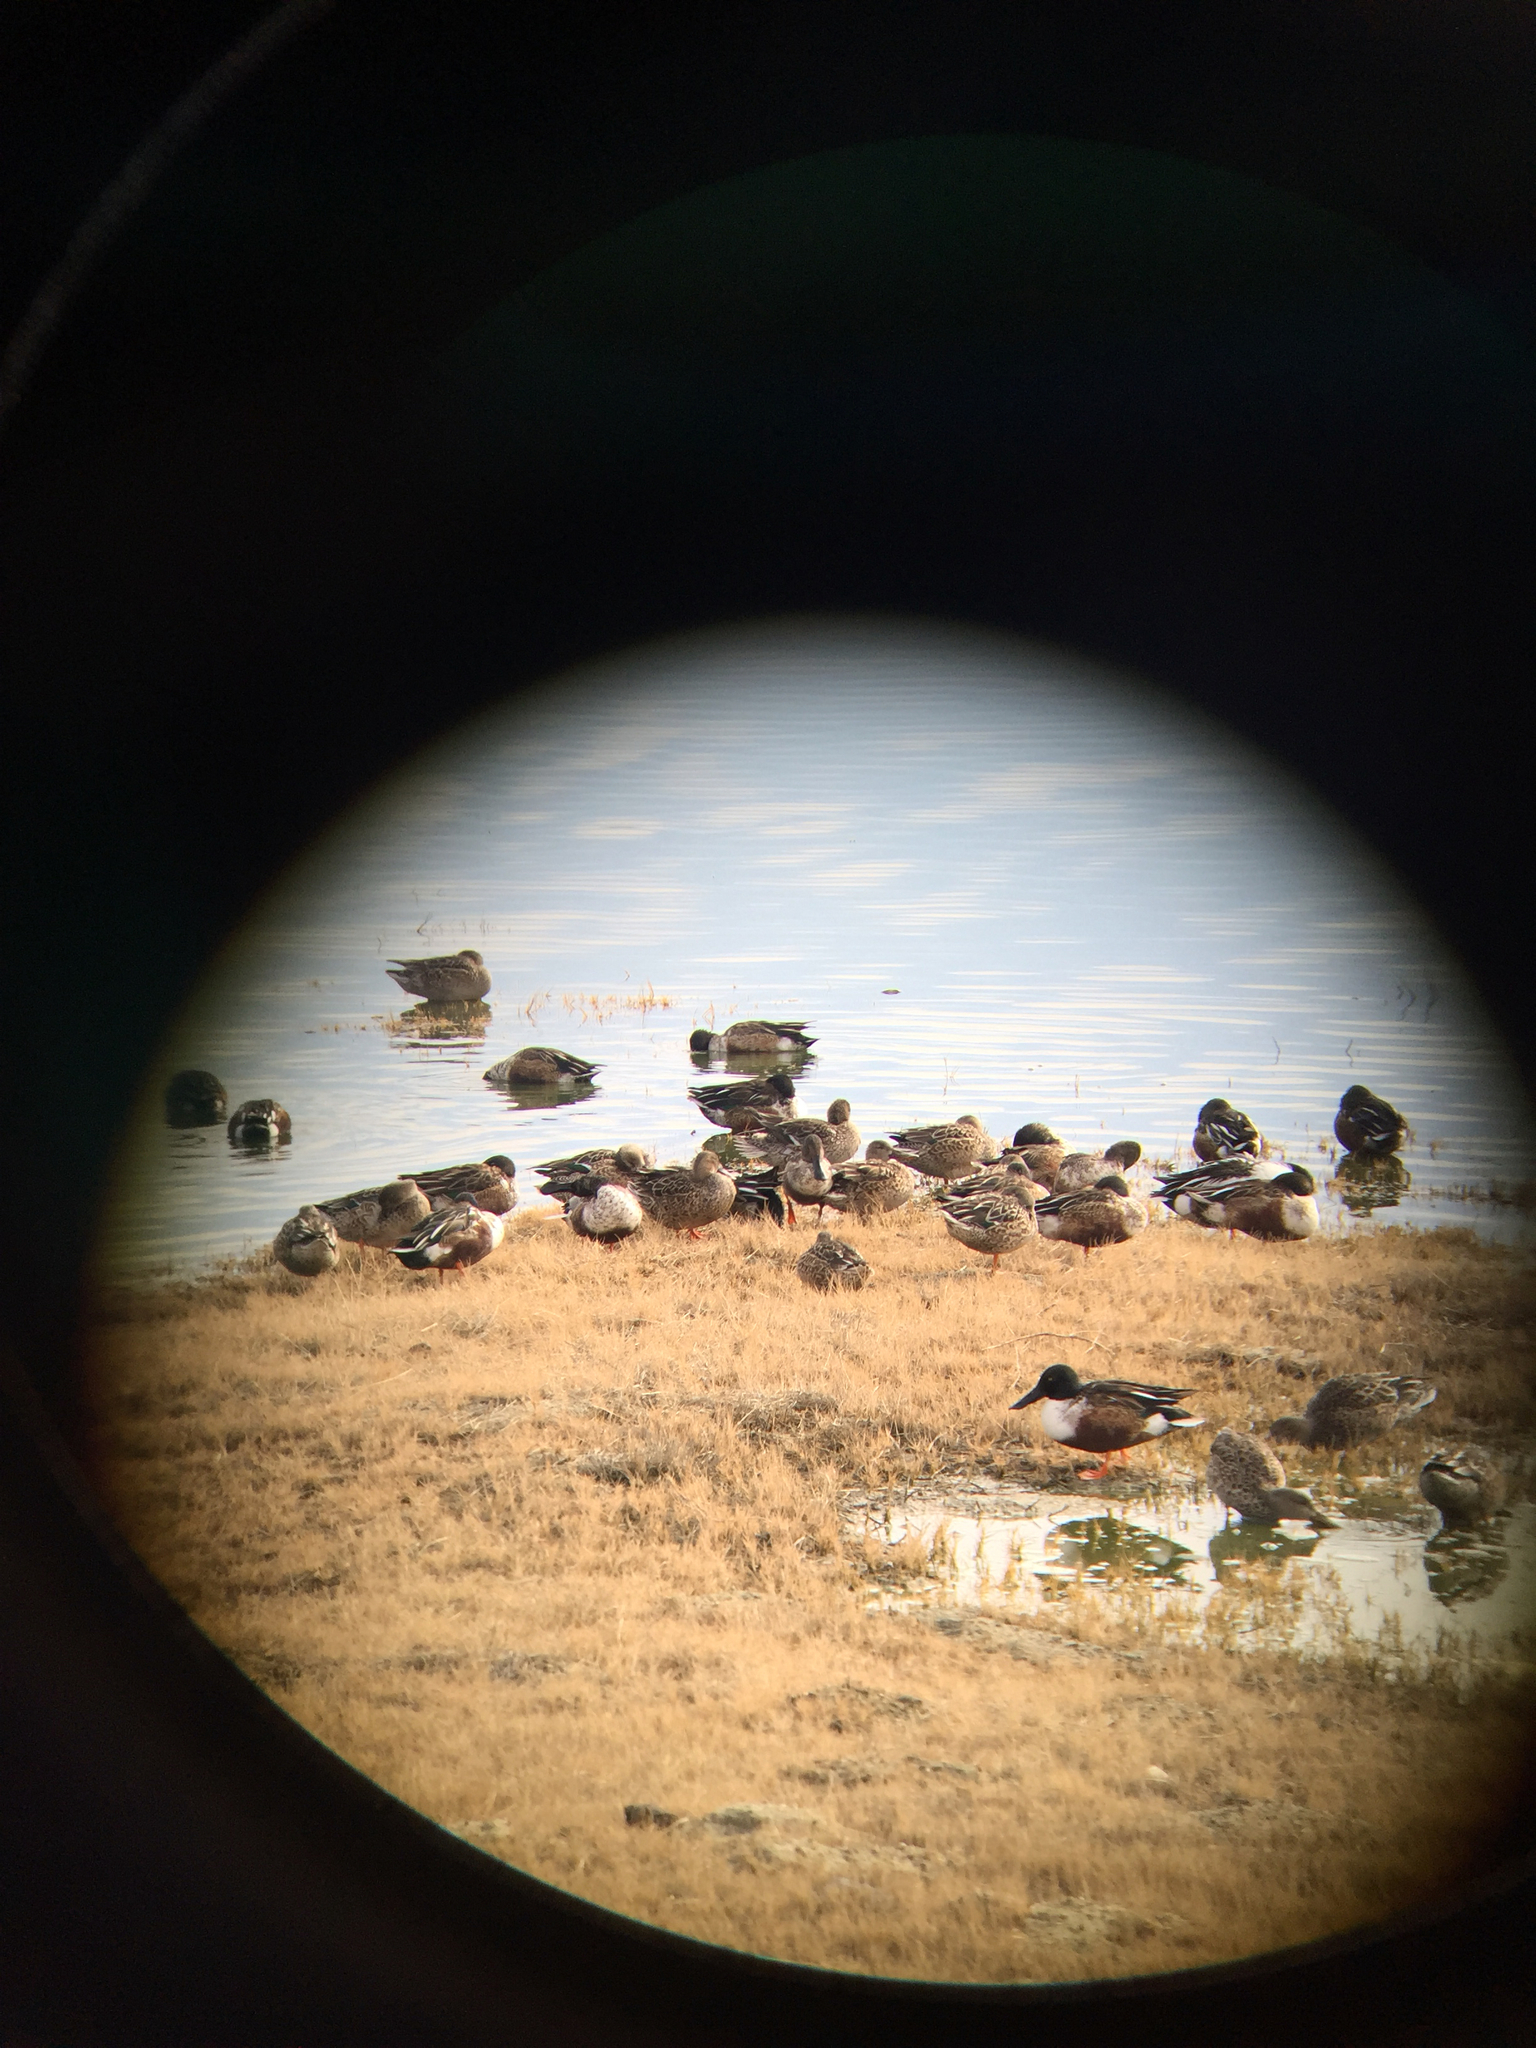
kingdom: Animalia
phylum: Chordata
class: Aves
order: Anseriformes
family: Anatidae
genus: Spatula
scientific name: Spatula clypeata
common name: Northern shoveler
